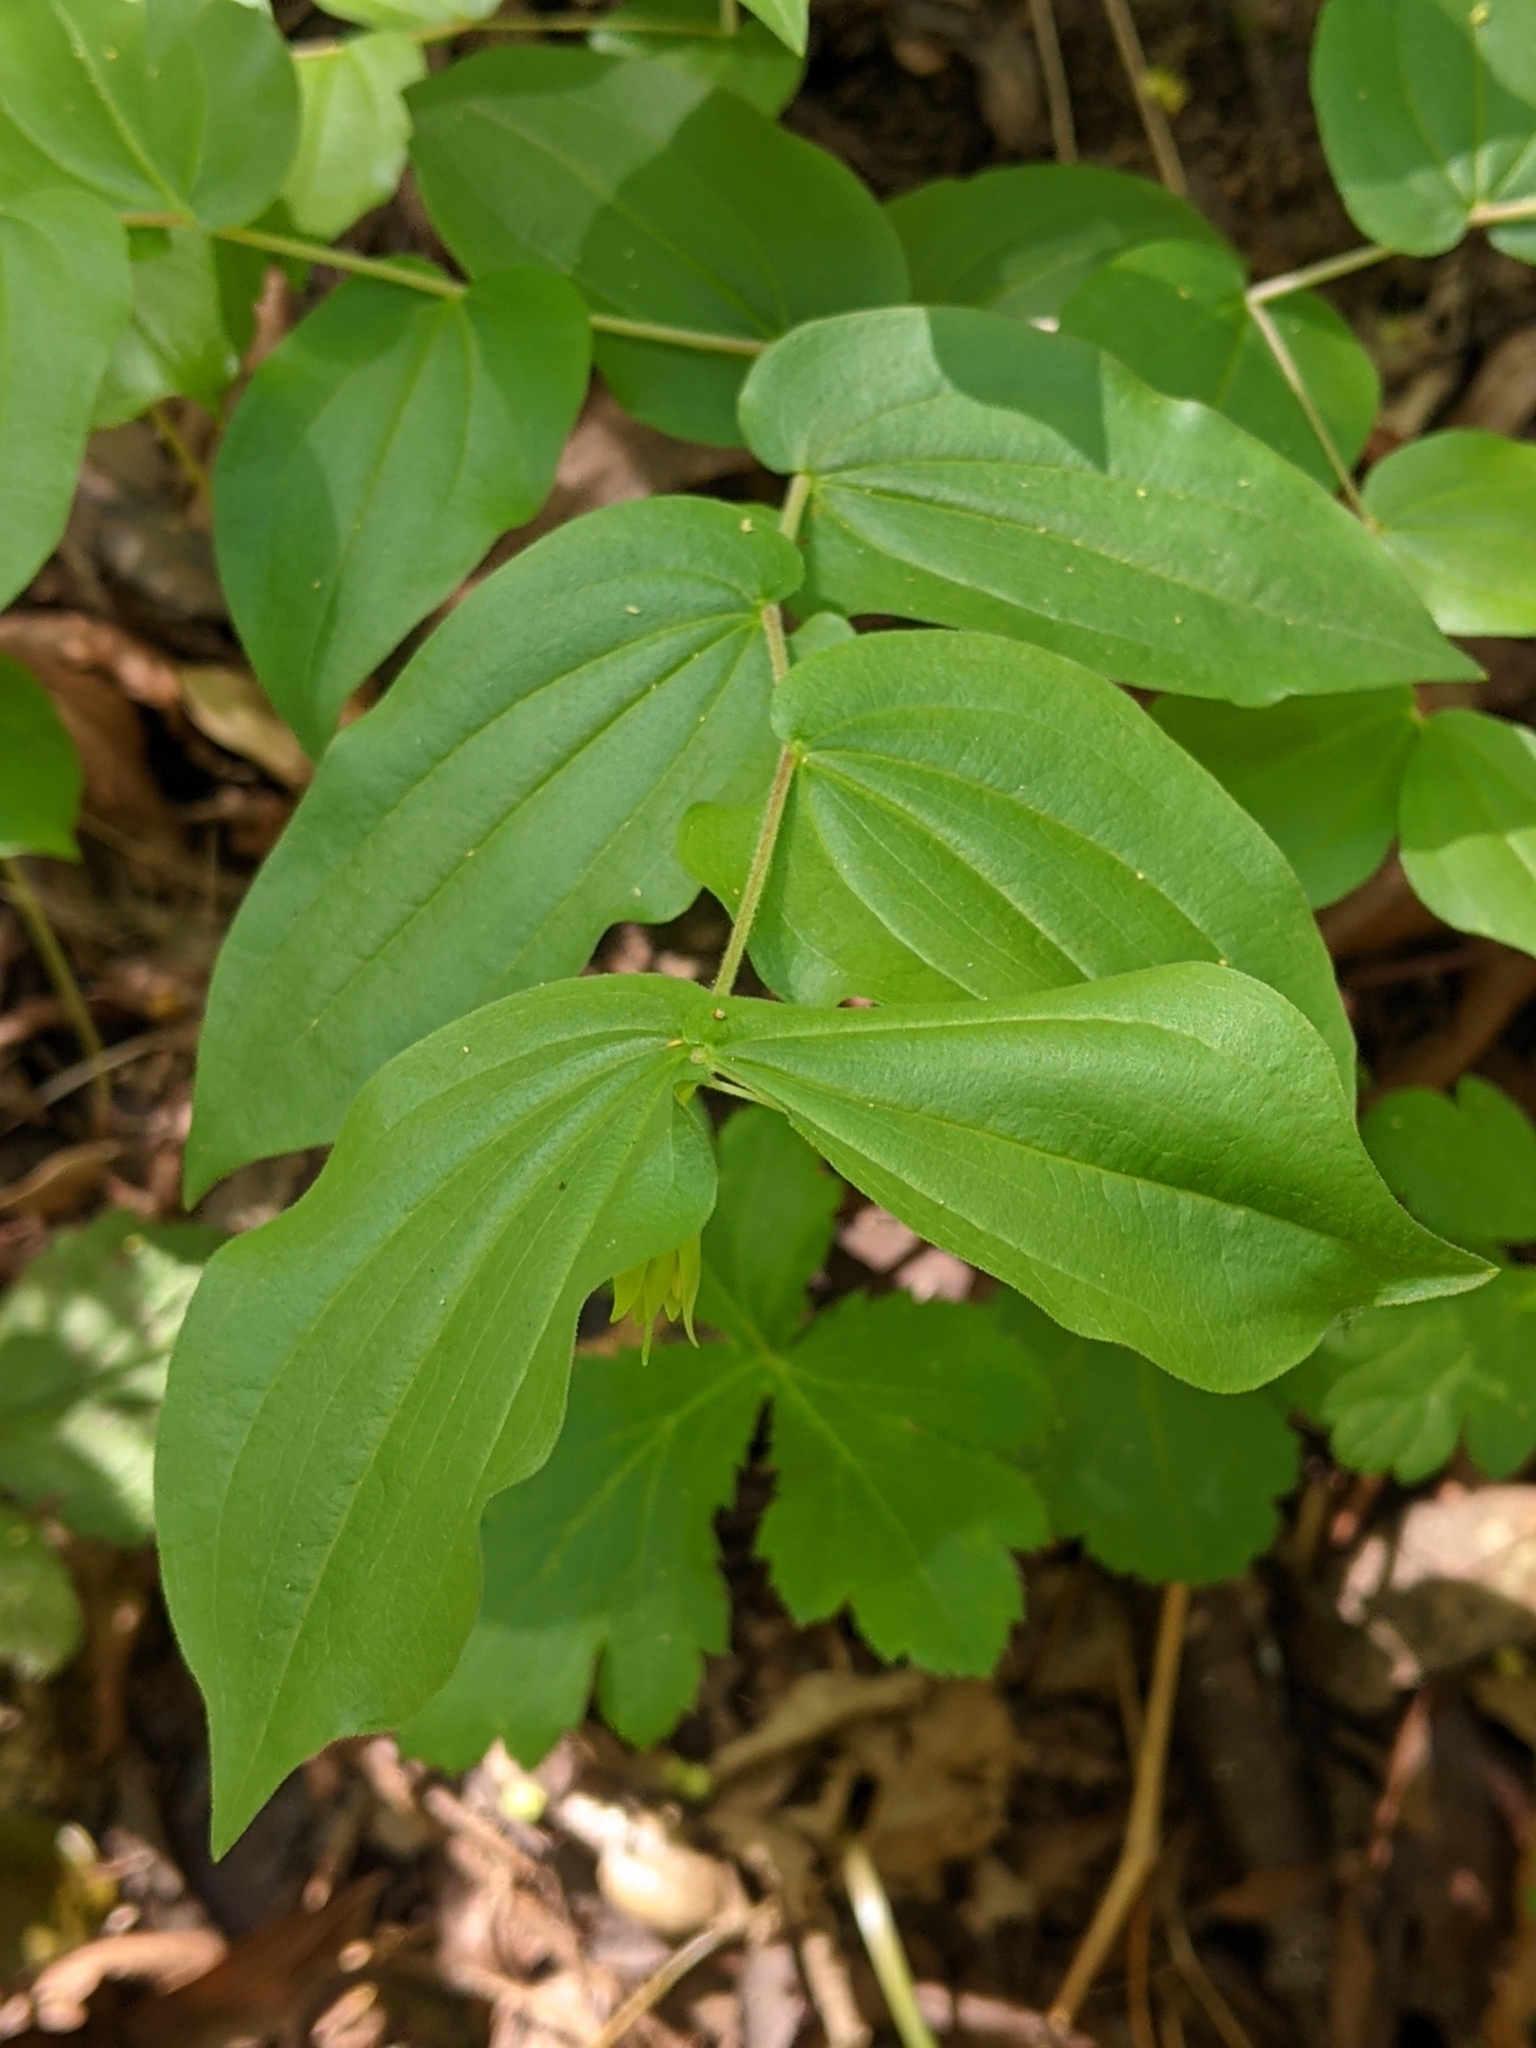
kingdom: Plantae
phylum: Tracheophyta
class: Liliopsida
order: Liliales
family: Liliaceae
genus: Prosartes
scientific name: Prosartes hookeri
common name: Fairy-bells
